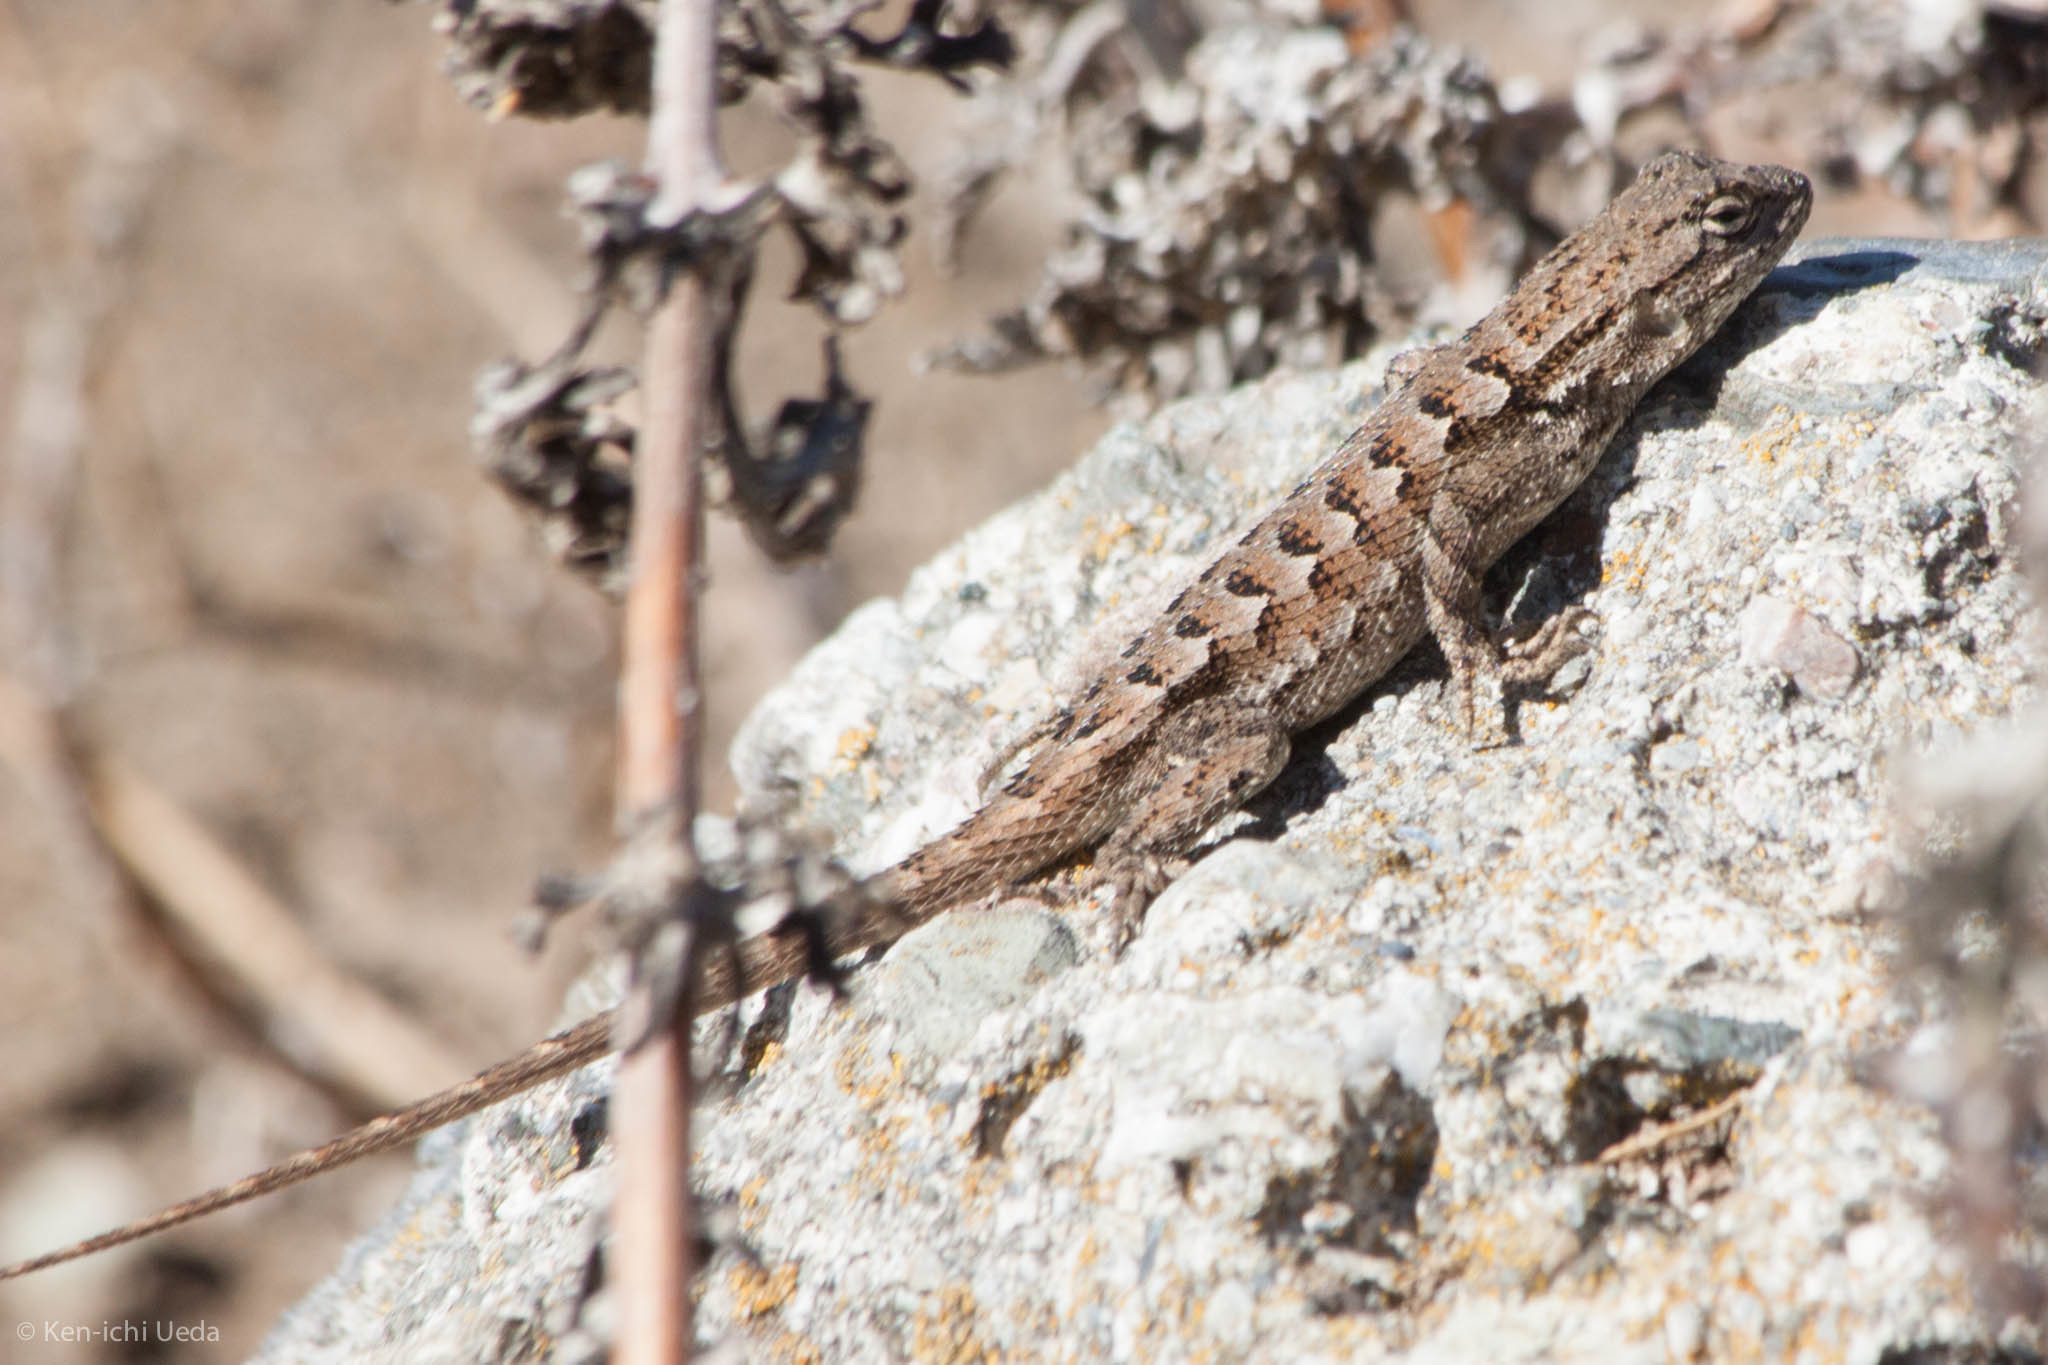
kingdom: Animalia
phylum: Chordata
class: Squamata
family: Phrynosomatidae
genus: Sceloporus
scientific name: Sceloporus occidentalis
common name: Western fence lizard
